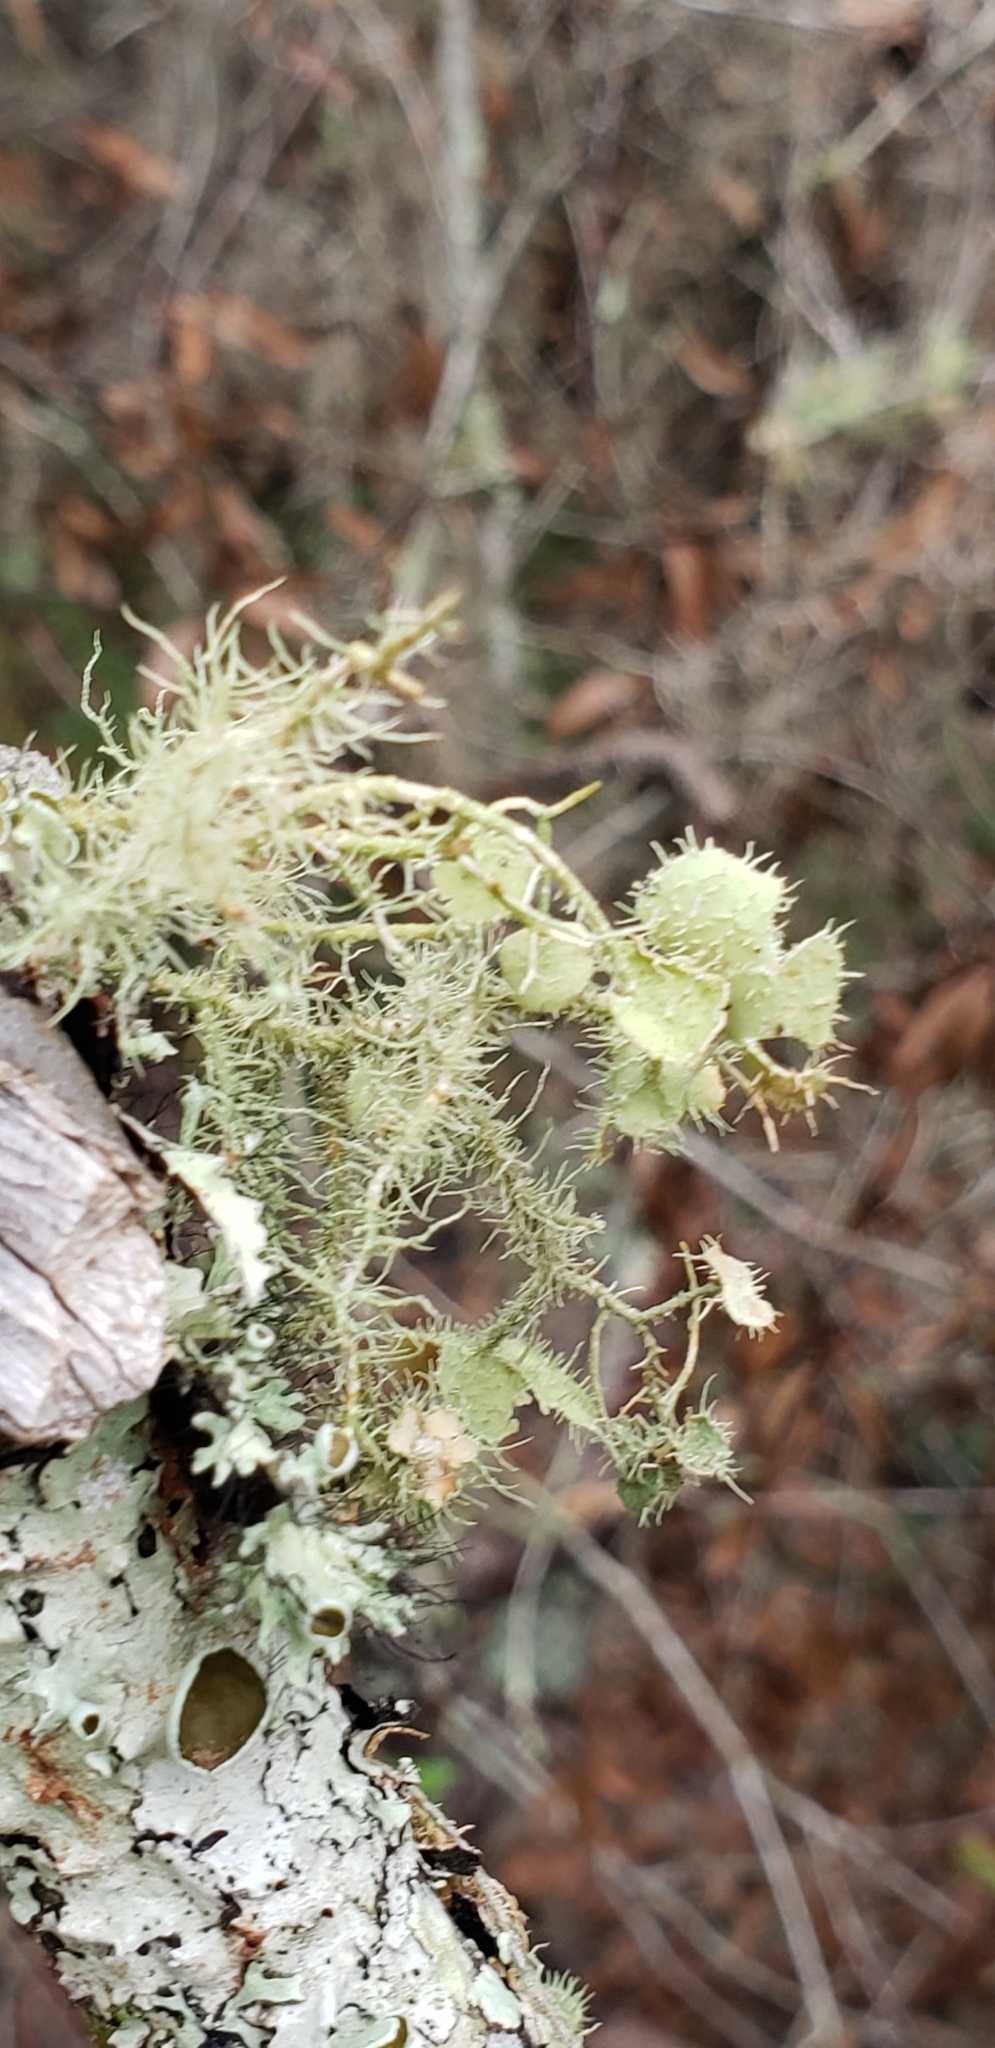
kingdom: Fungi
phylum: Ascomycota
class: Lecanoromycetes
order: Lecanorales
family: Parmeliaceae
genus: Usnea
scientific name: Usnea strigosa
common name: Bushy beard lichen
